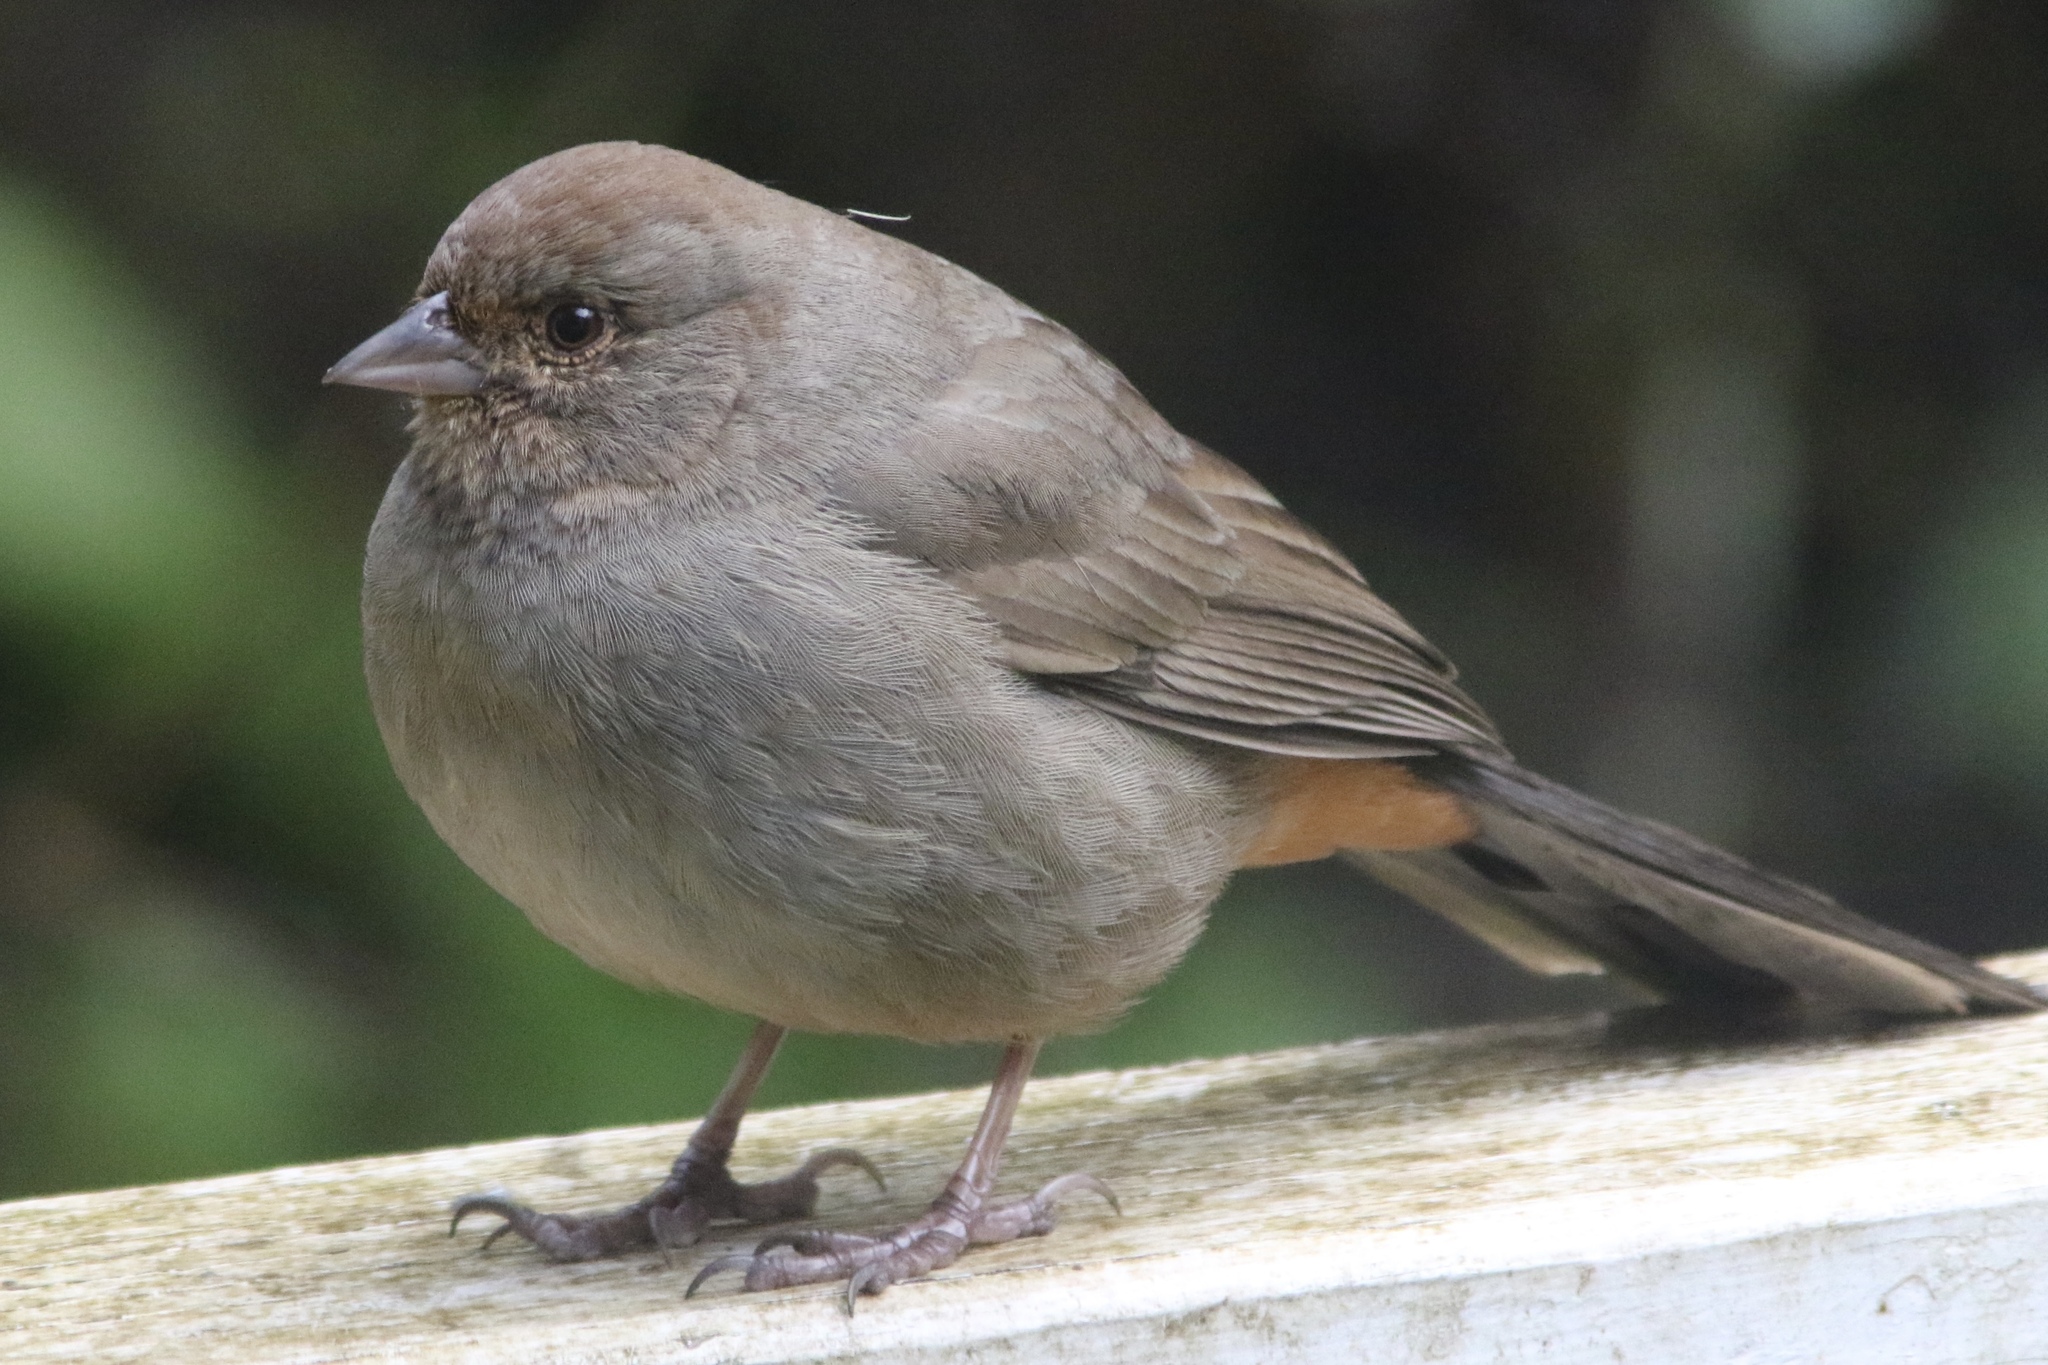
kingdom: Animalia
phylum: Chordata
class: Aves
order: Passeriformes
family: Passerellidae
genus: Melozone
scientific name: Melozone crissalis
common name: California towhee
